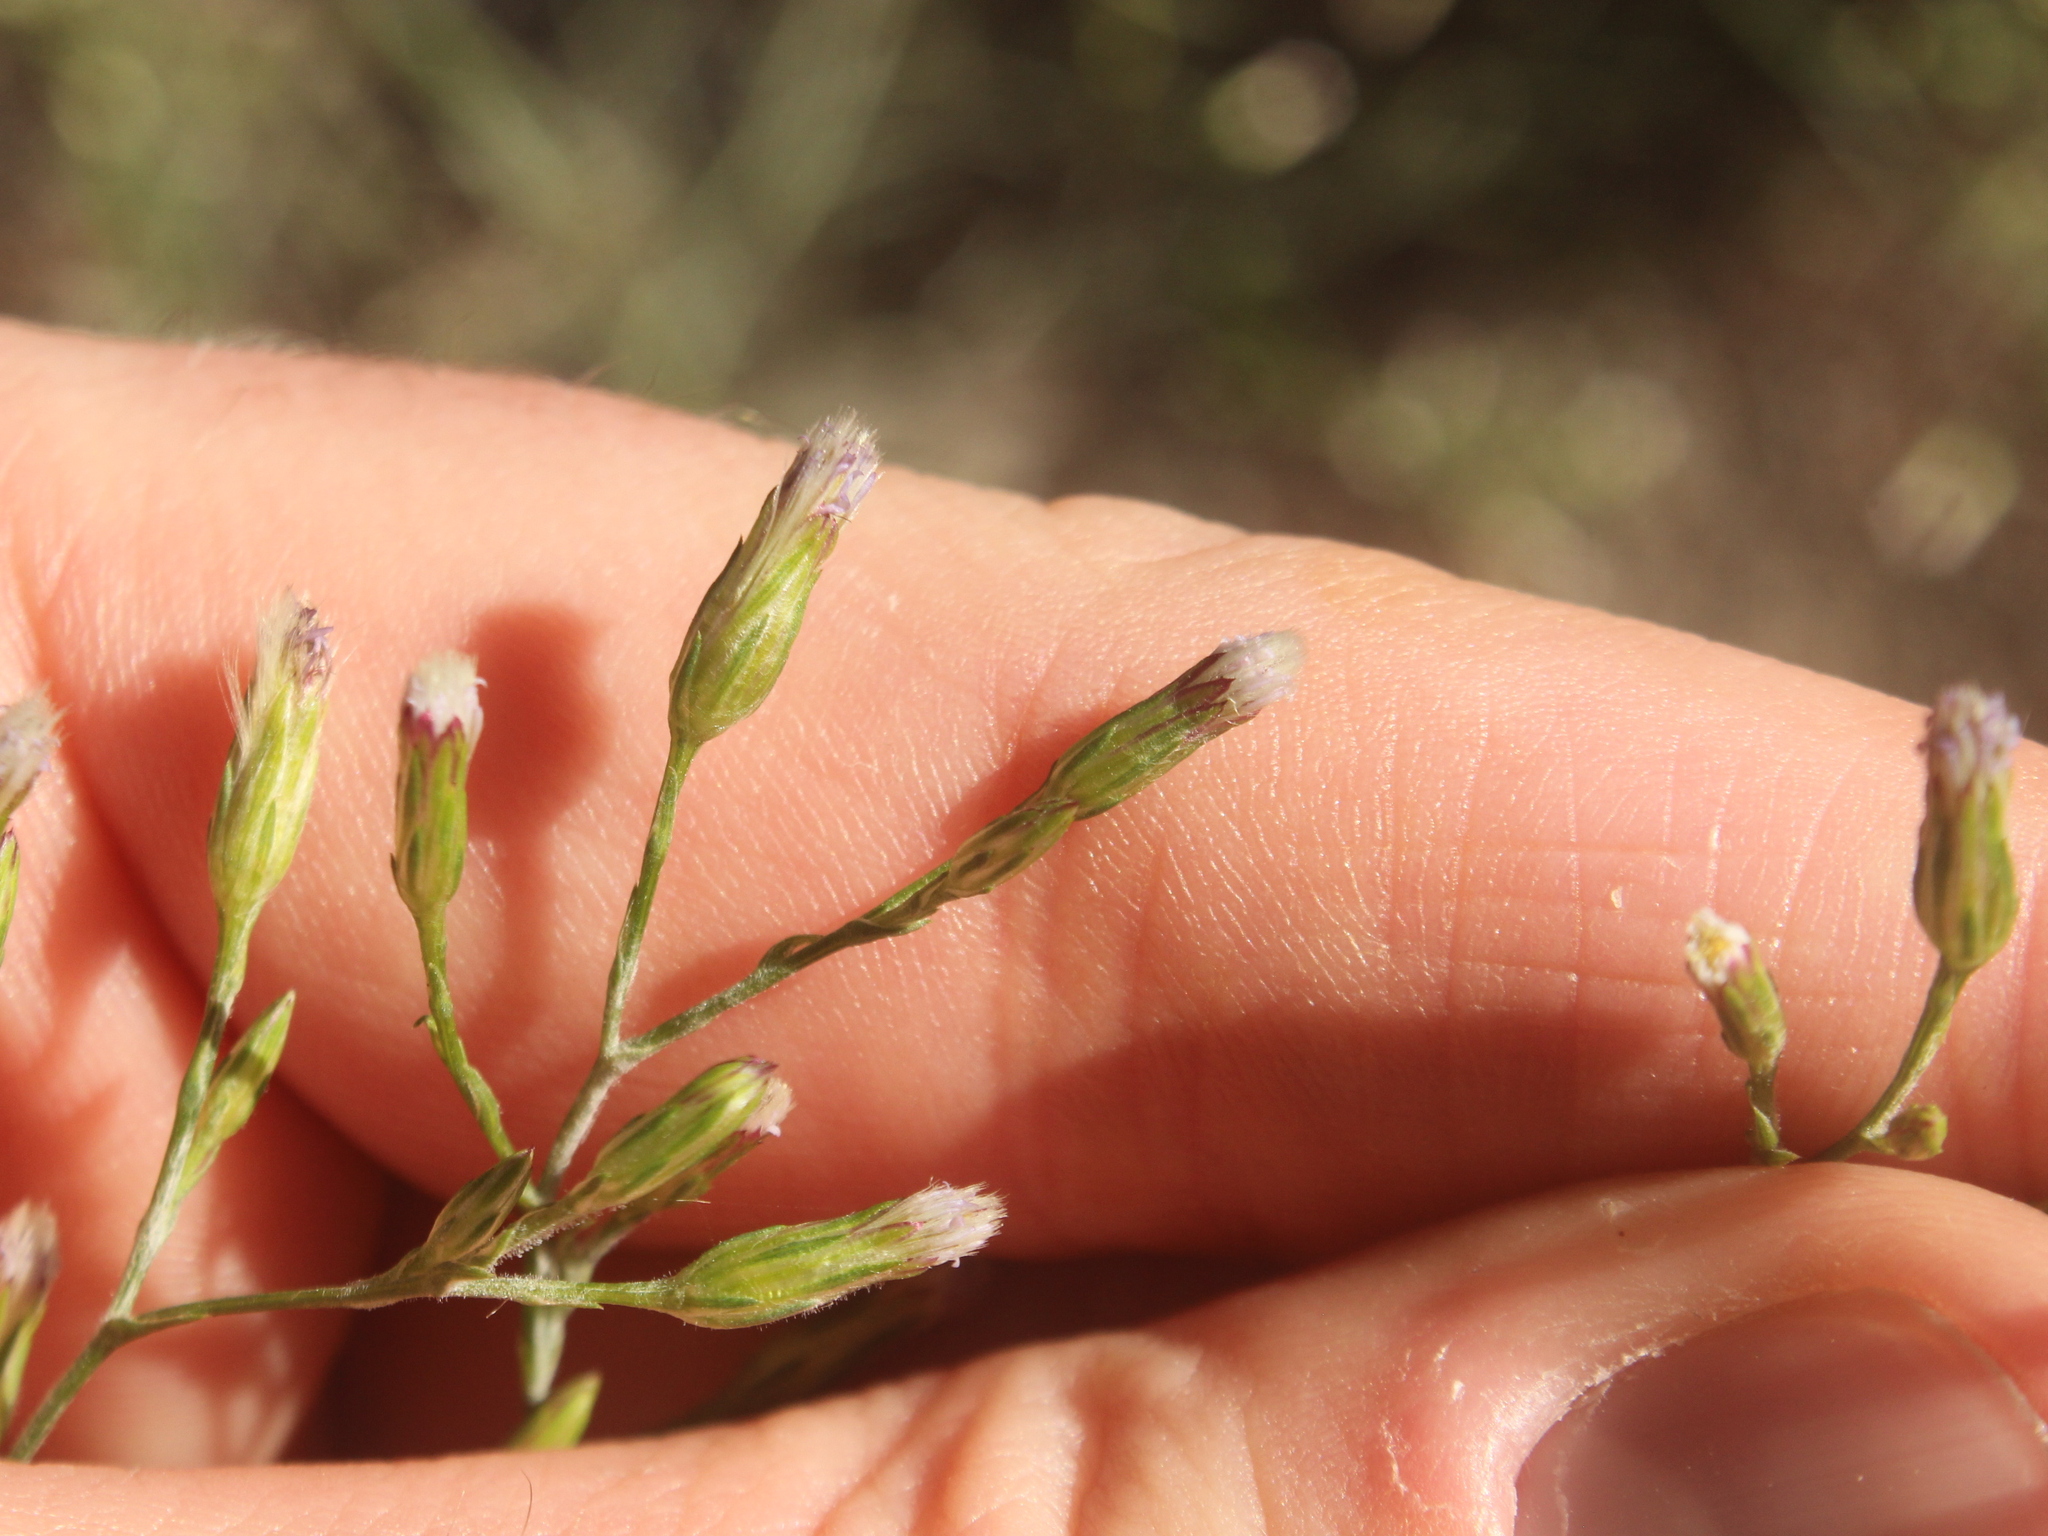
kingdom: Plantae
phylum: Tracheophyta
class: Magnoliopsida
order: Asterales
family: Asteraceae
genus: Symphyotrichum
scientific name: Symphyotrichum subulatum
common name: Annual saltmarsh aster
